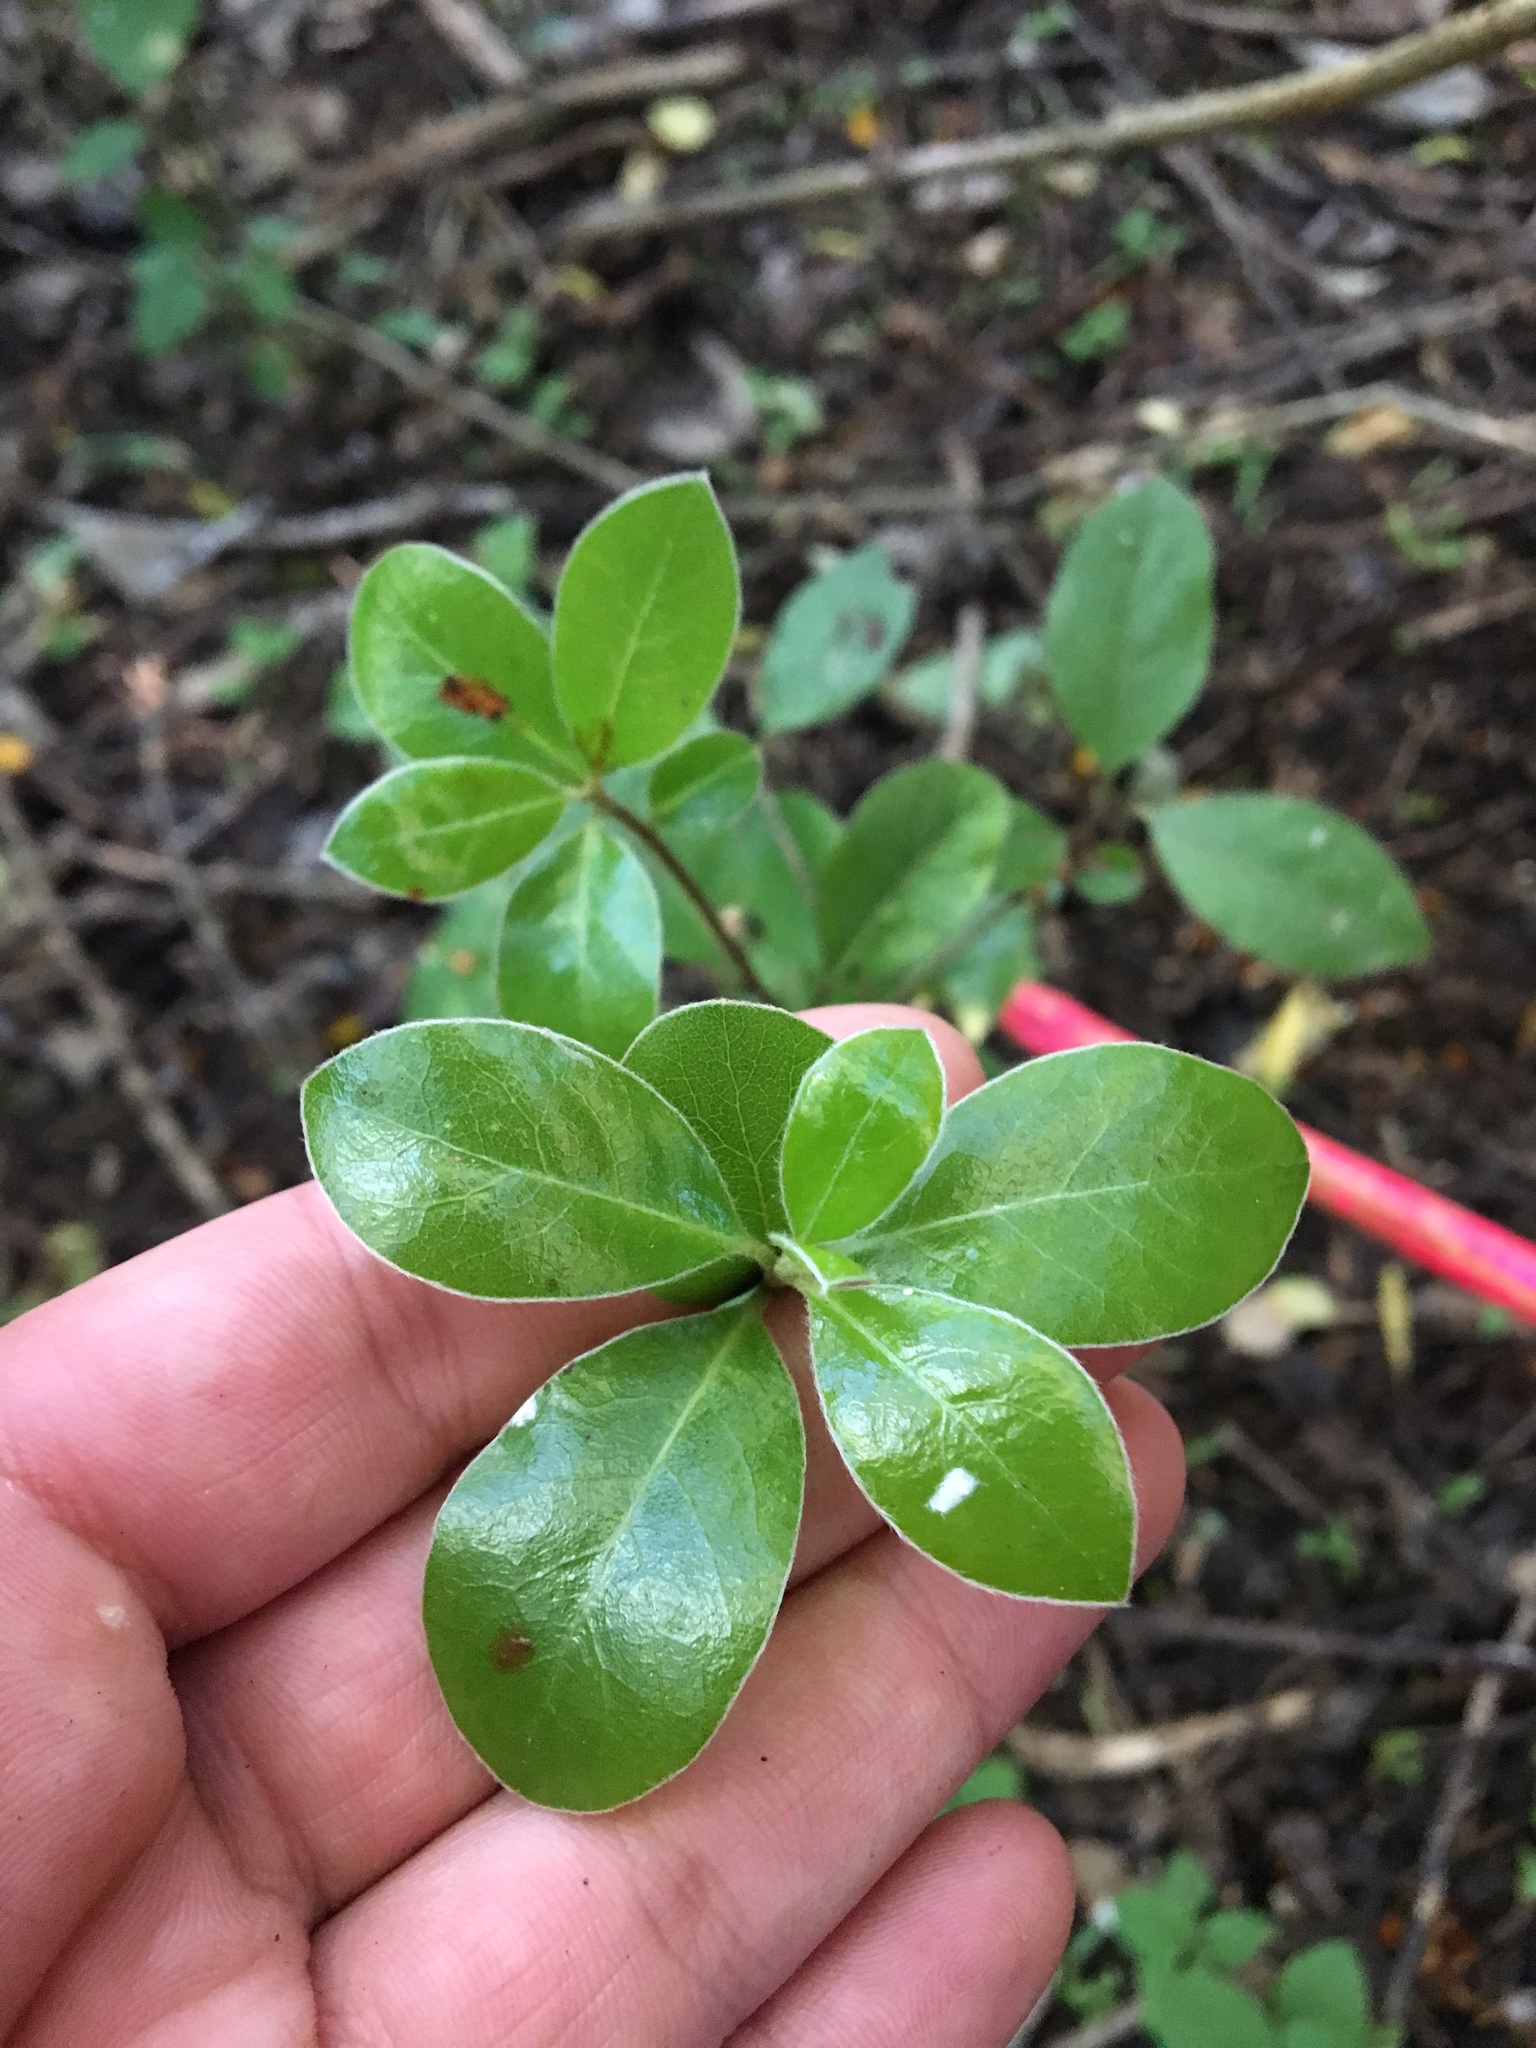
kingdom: Plantae
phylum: Tracheophyta
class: Magnoliopsida
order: Apiales
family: Pittosporaceae
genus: Pittosporum
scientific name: Pittosporum tenuifolium
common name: Kohuhu
